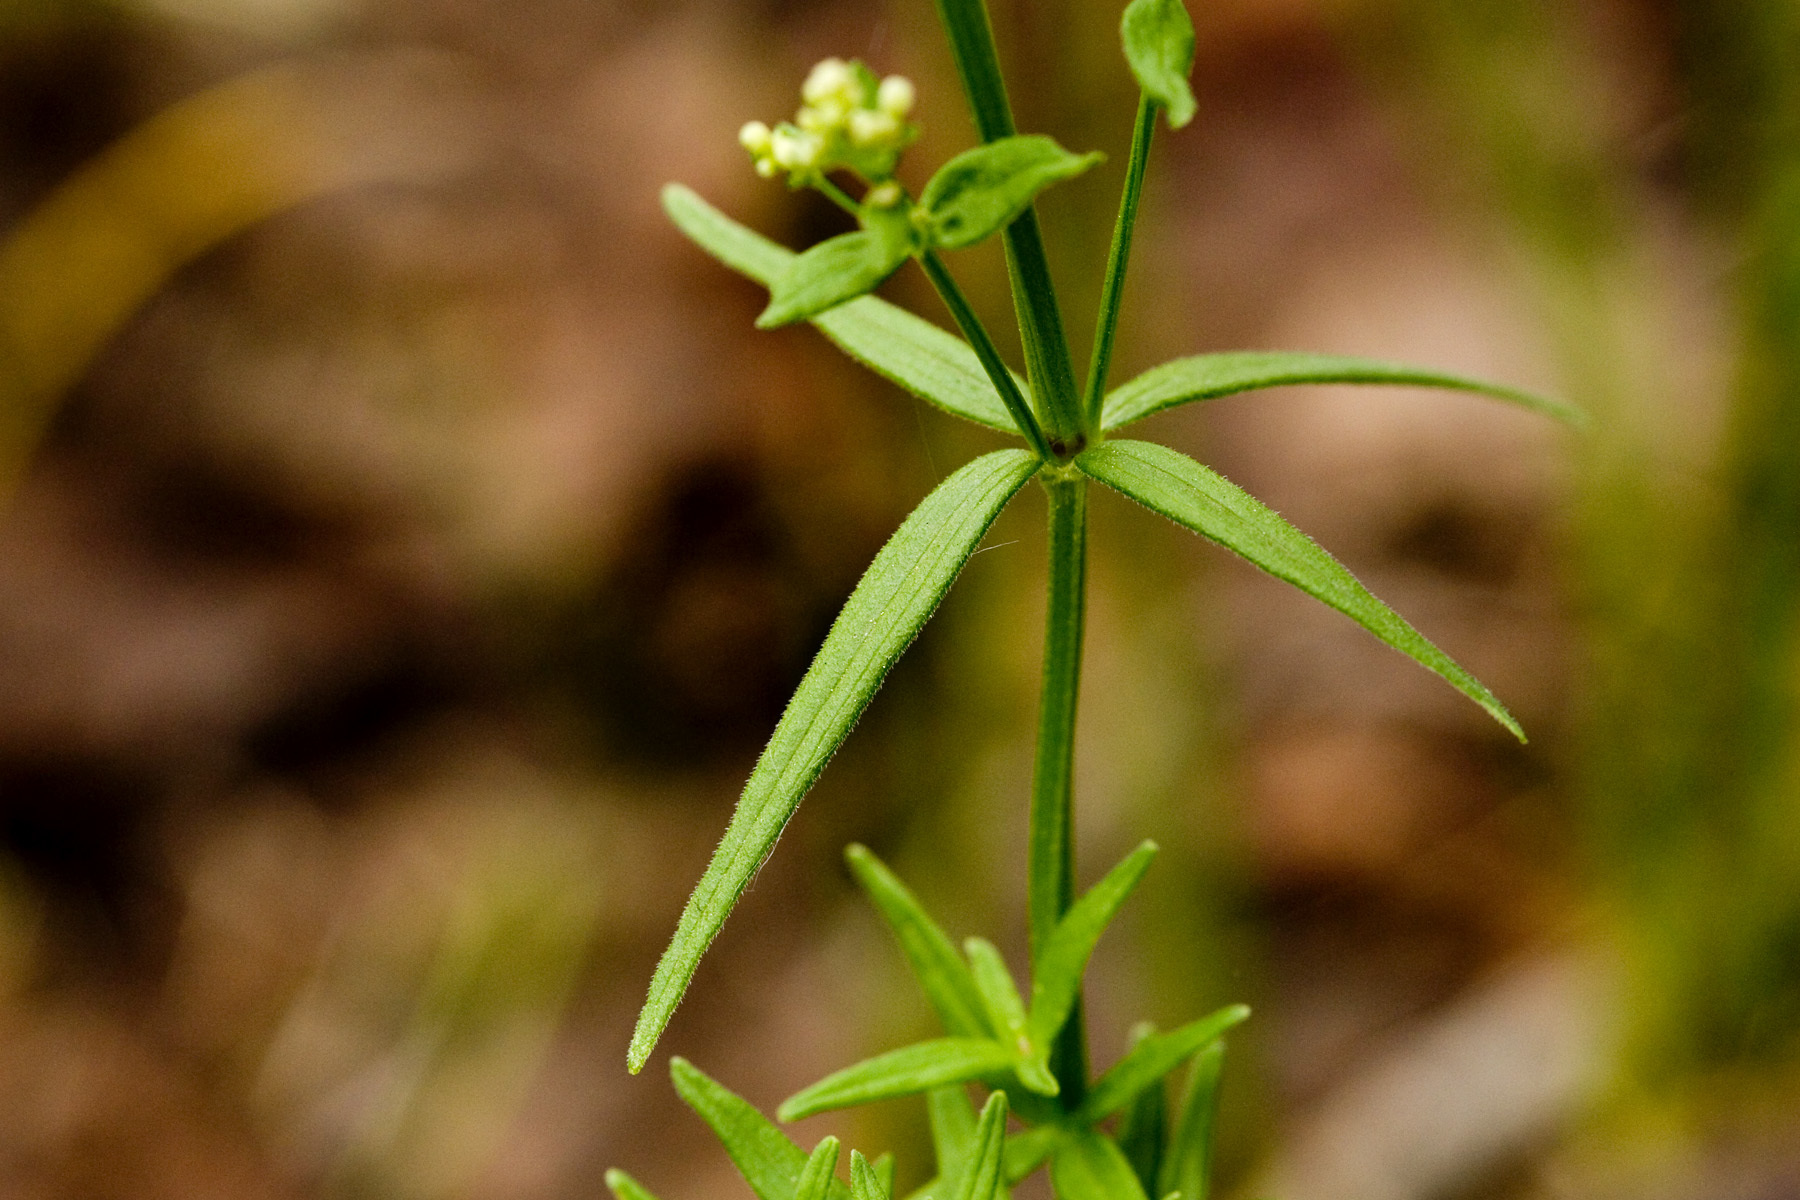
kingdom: Plantae
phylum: Tracheophyta
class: Magnoliopsida
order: Gentianales
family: Rubiaceae
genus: Galium
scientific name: Galium boreale
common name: Northern bedstraw
